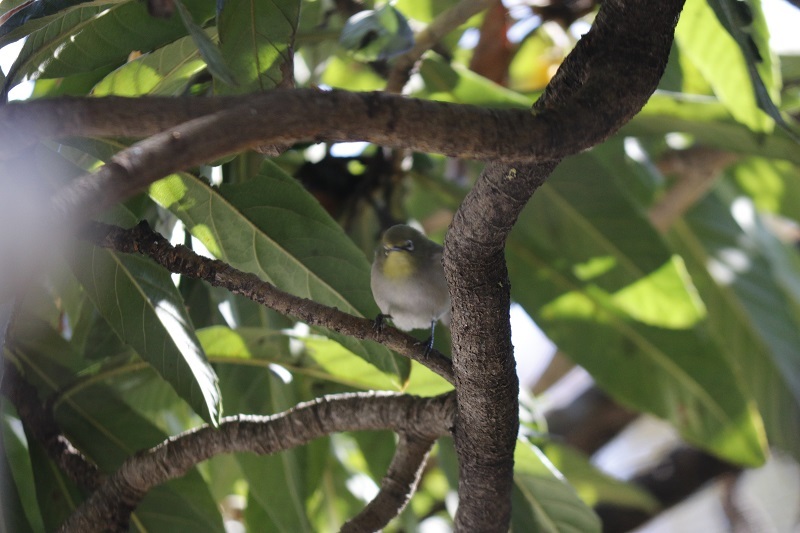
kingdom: Animalia
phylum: Chordata
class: Aves
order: Passeriformes
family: Zosteropidae
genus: Zosterops
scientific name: Zosterops virens
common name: Cape white-eye
